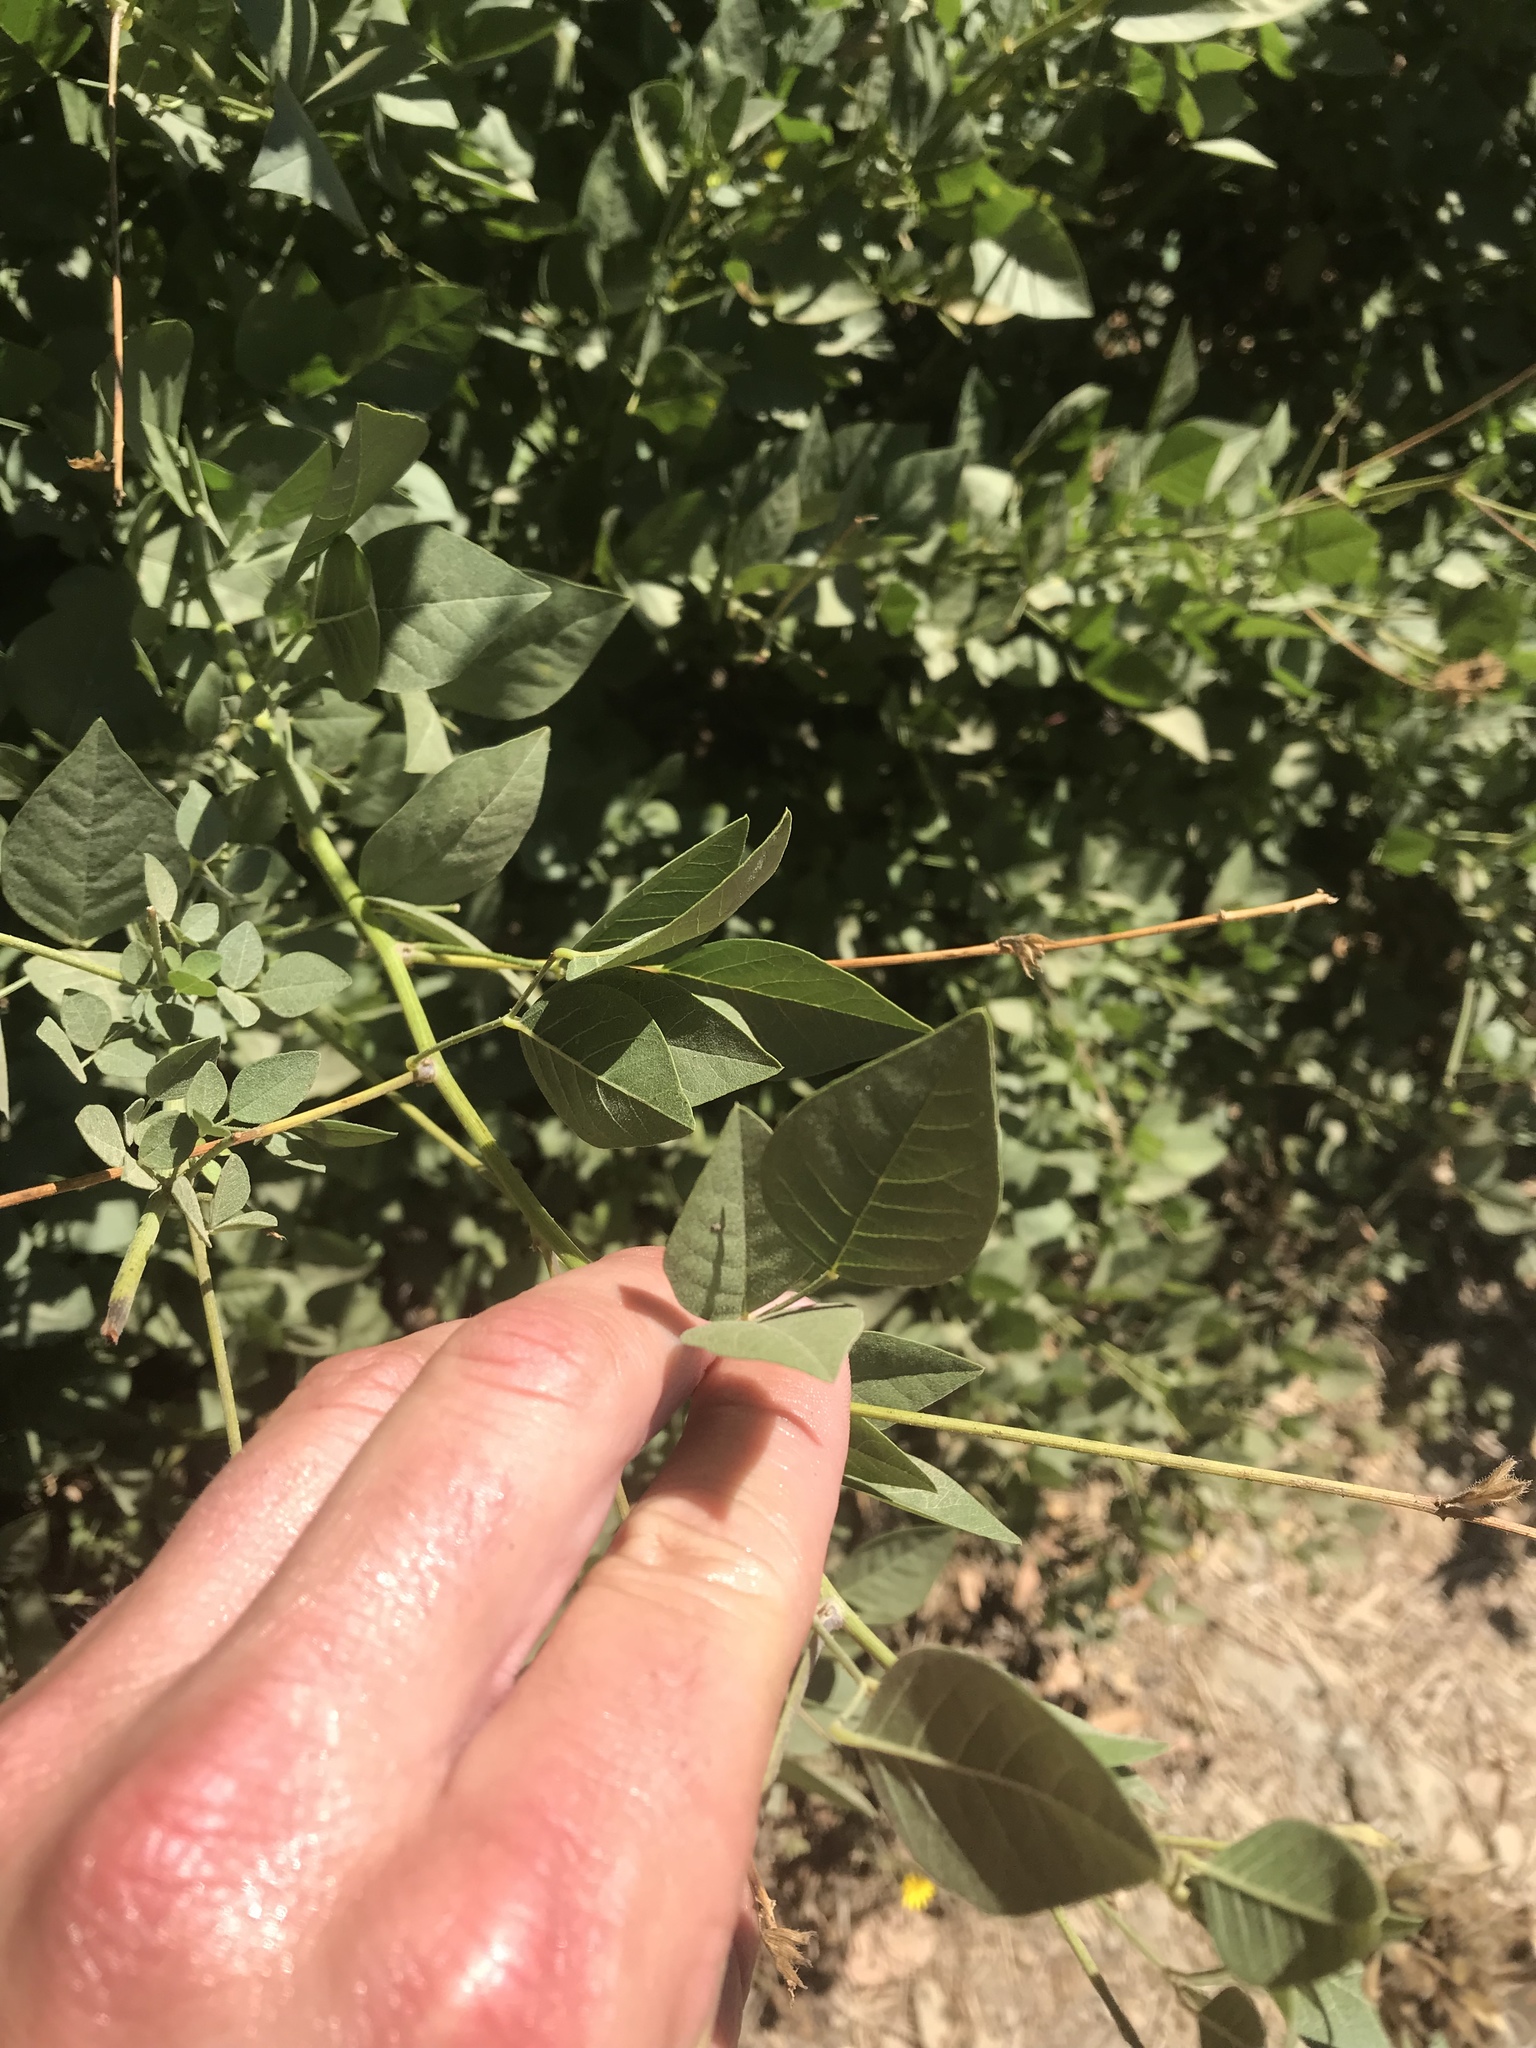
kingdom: Plantae
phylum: Tracheophyta
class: Magnoliopsida
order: Fabales
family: Fabaceae
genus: Hoita
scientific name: Hoita macrostachya
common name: Leatherroot
